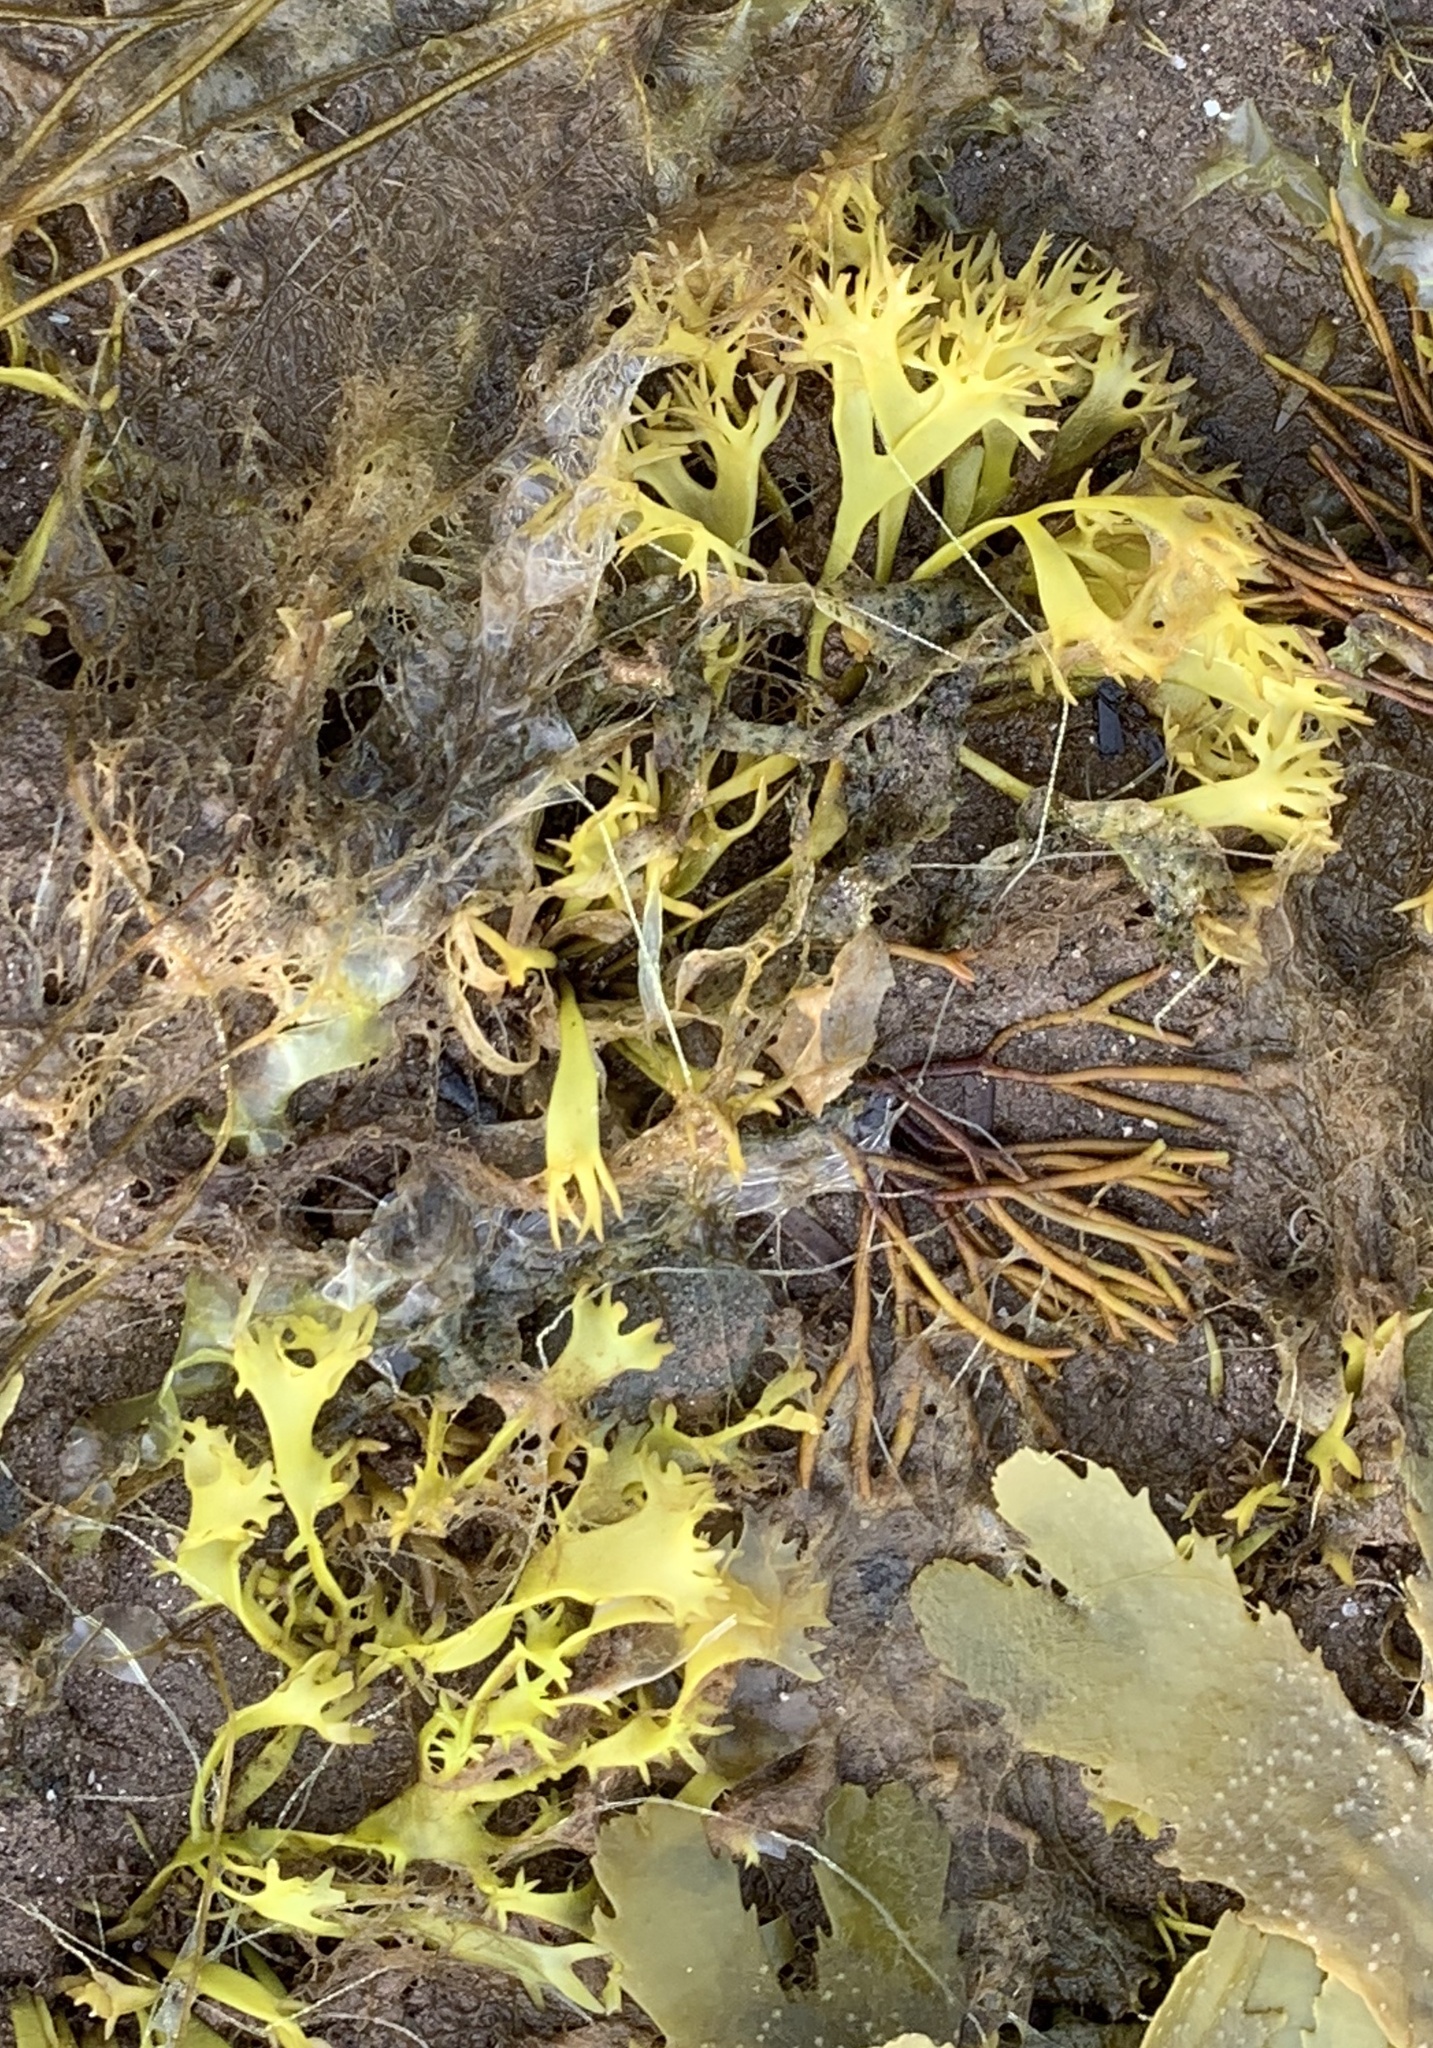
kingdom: Plantae
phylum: Rhodophyta
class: Florideophyceae
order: Gigartinales
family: Gigartinaceae
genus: Chondrus
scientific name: Chondrus crispus
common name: Carrageen
